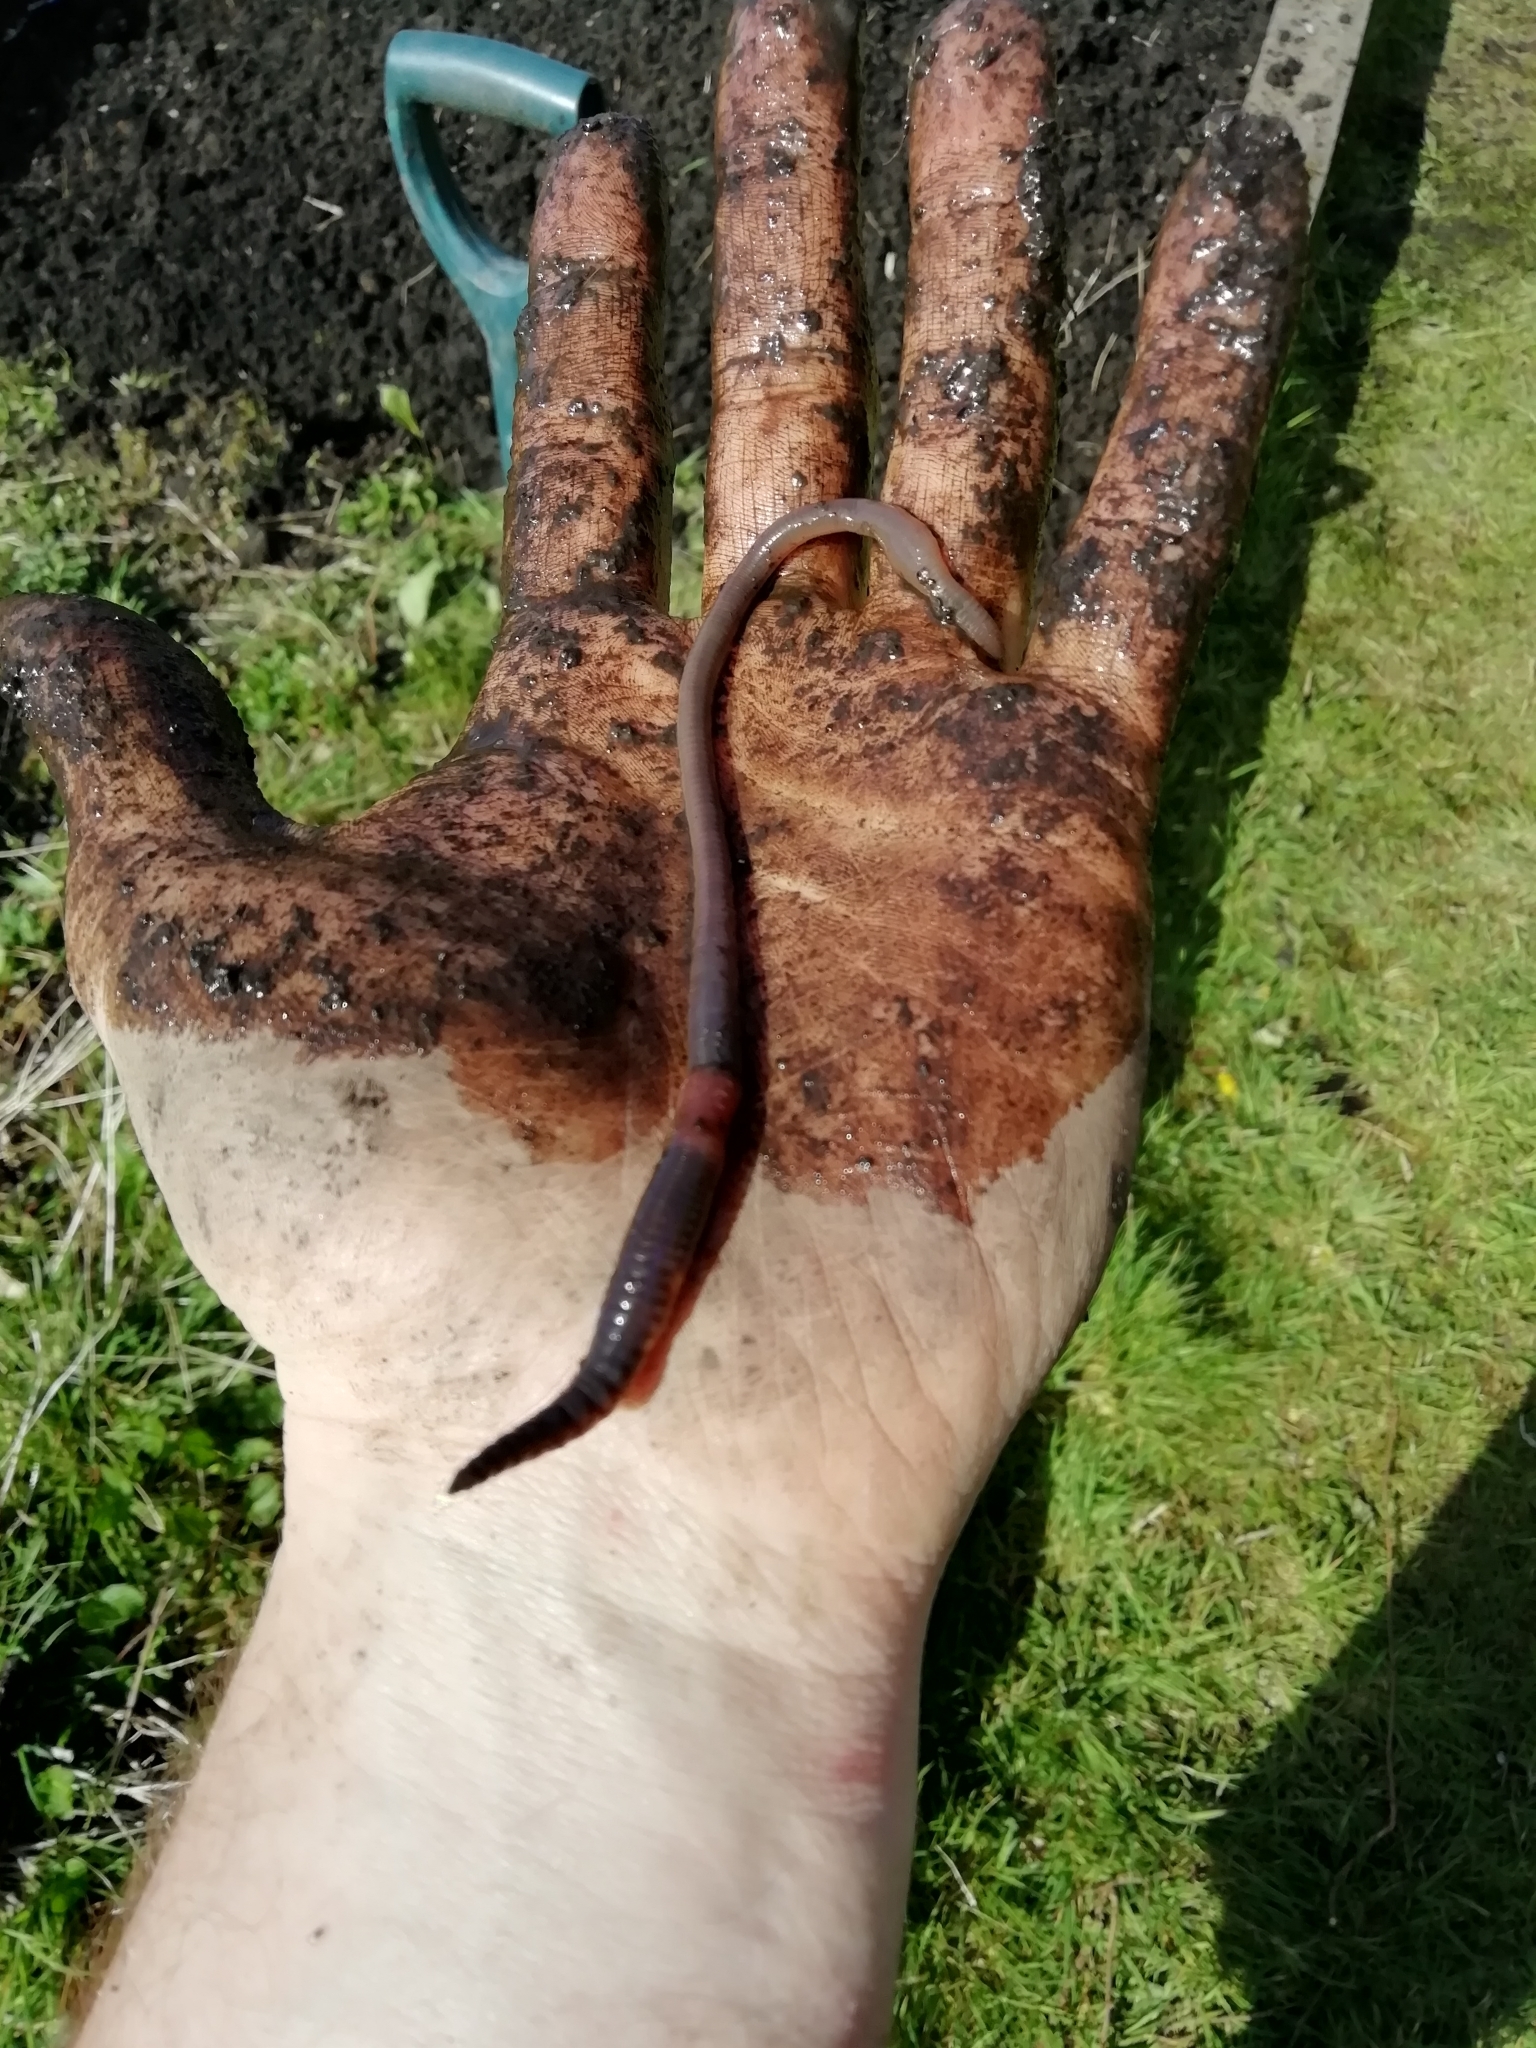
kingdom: Animalia
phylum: Annelida
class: Clitellata
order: Crassiclitellata
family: Lumbricidae
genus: Lumbricus
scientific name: Lumbricus terrestris
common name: Common earthworm
